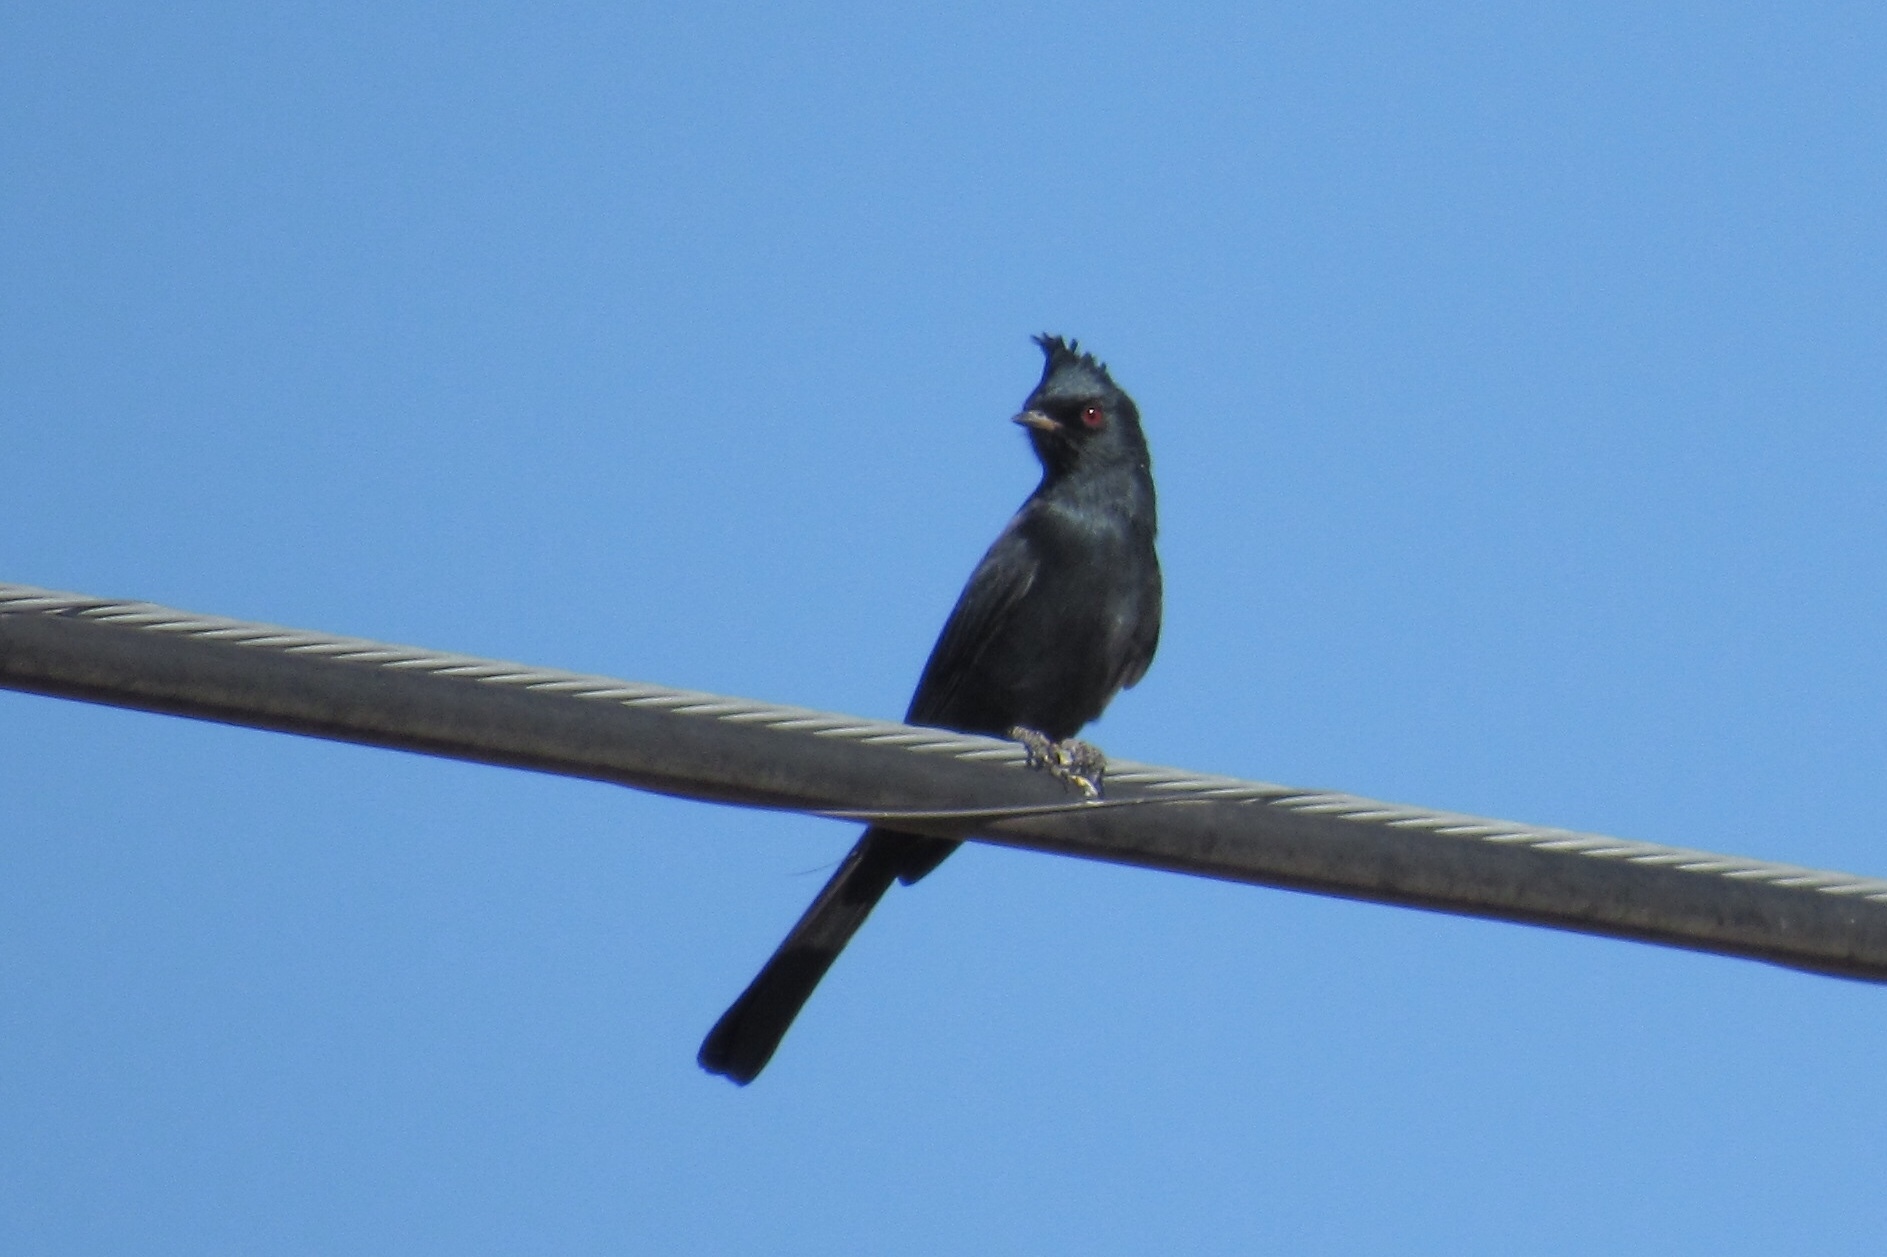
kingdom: Animalia
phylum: Chordata
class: Aves
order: Passeriformes
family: Ptilogonatidae
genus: Phainopepla
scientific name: Phainopepla nitens
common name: Phainopepla
